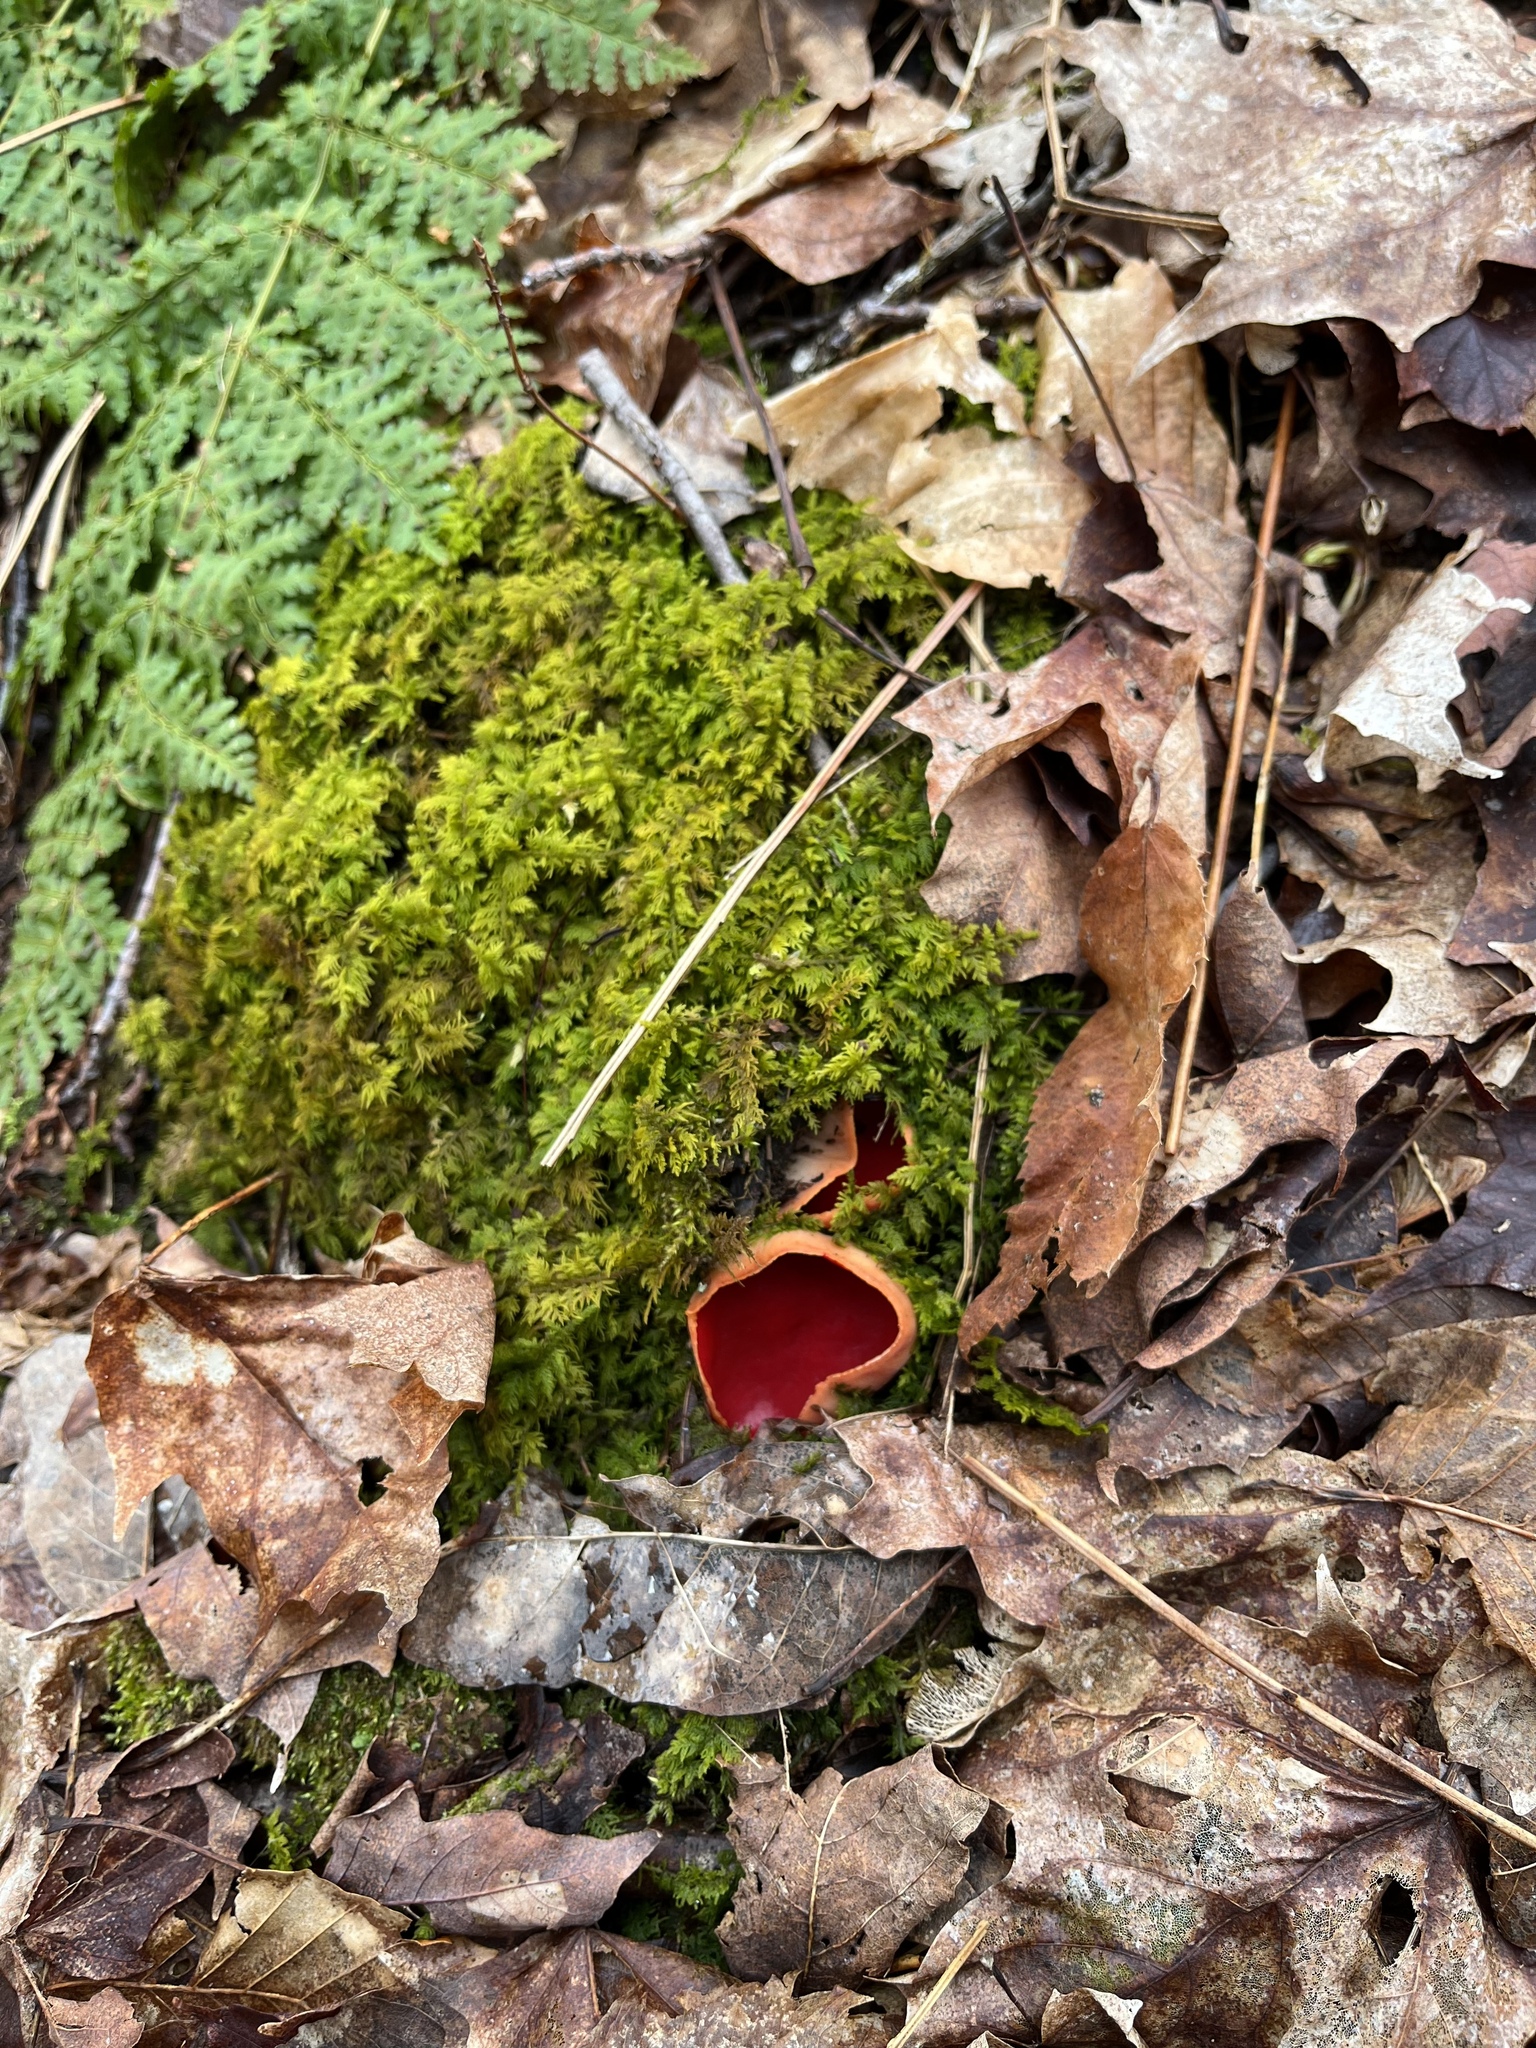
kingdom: Fungi
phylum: Ascomycota
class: Pezizomycetes
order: Pezizales
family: Sarcoscyphaceae
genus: Sarcoscypha
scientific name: Sarcoscypha
